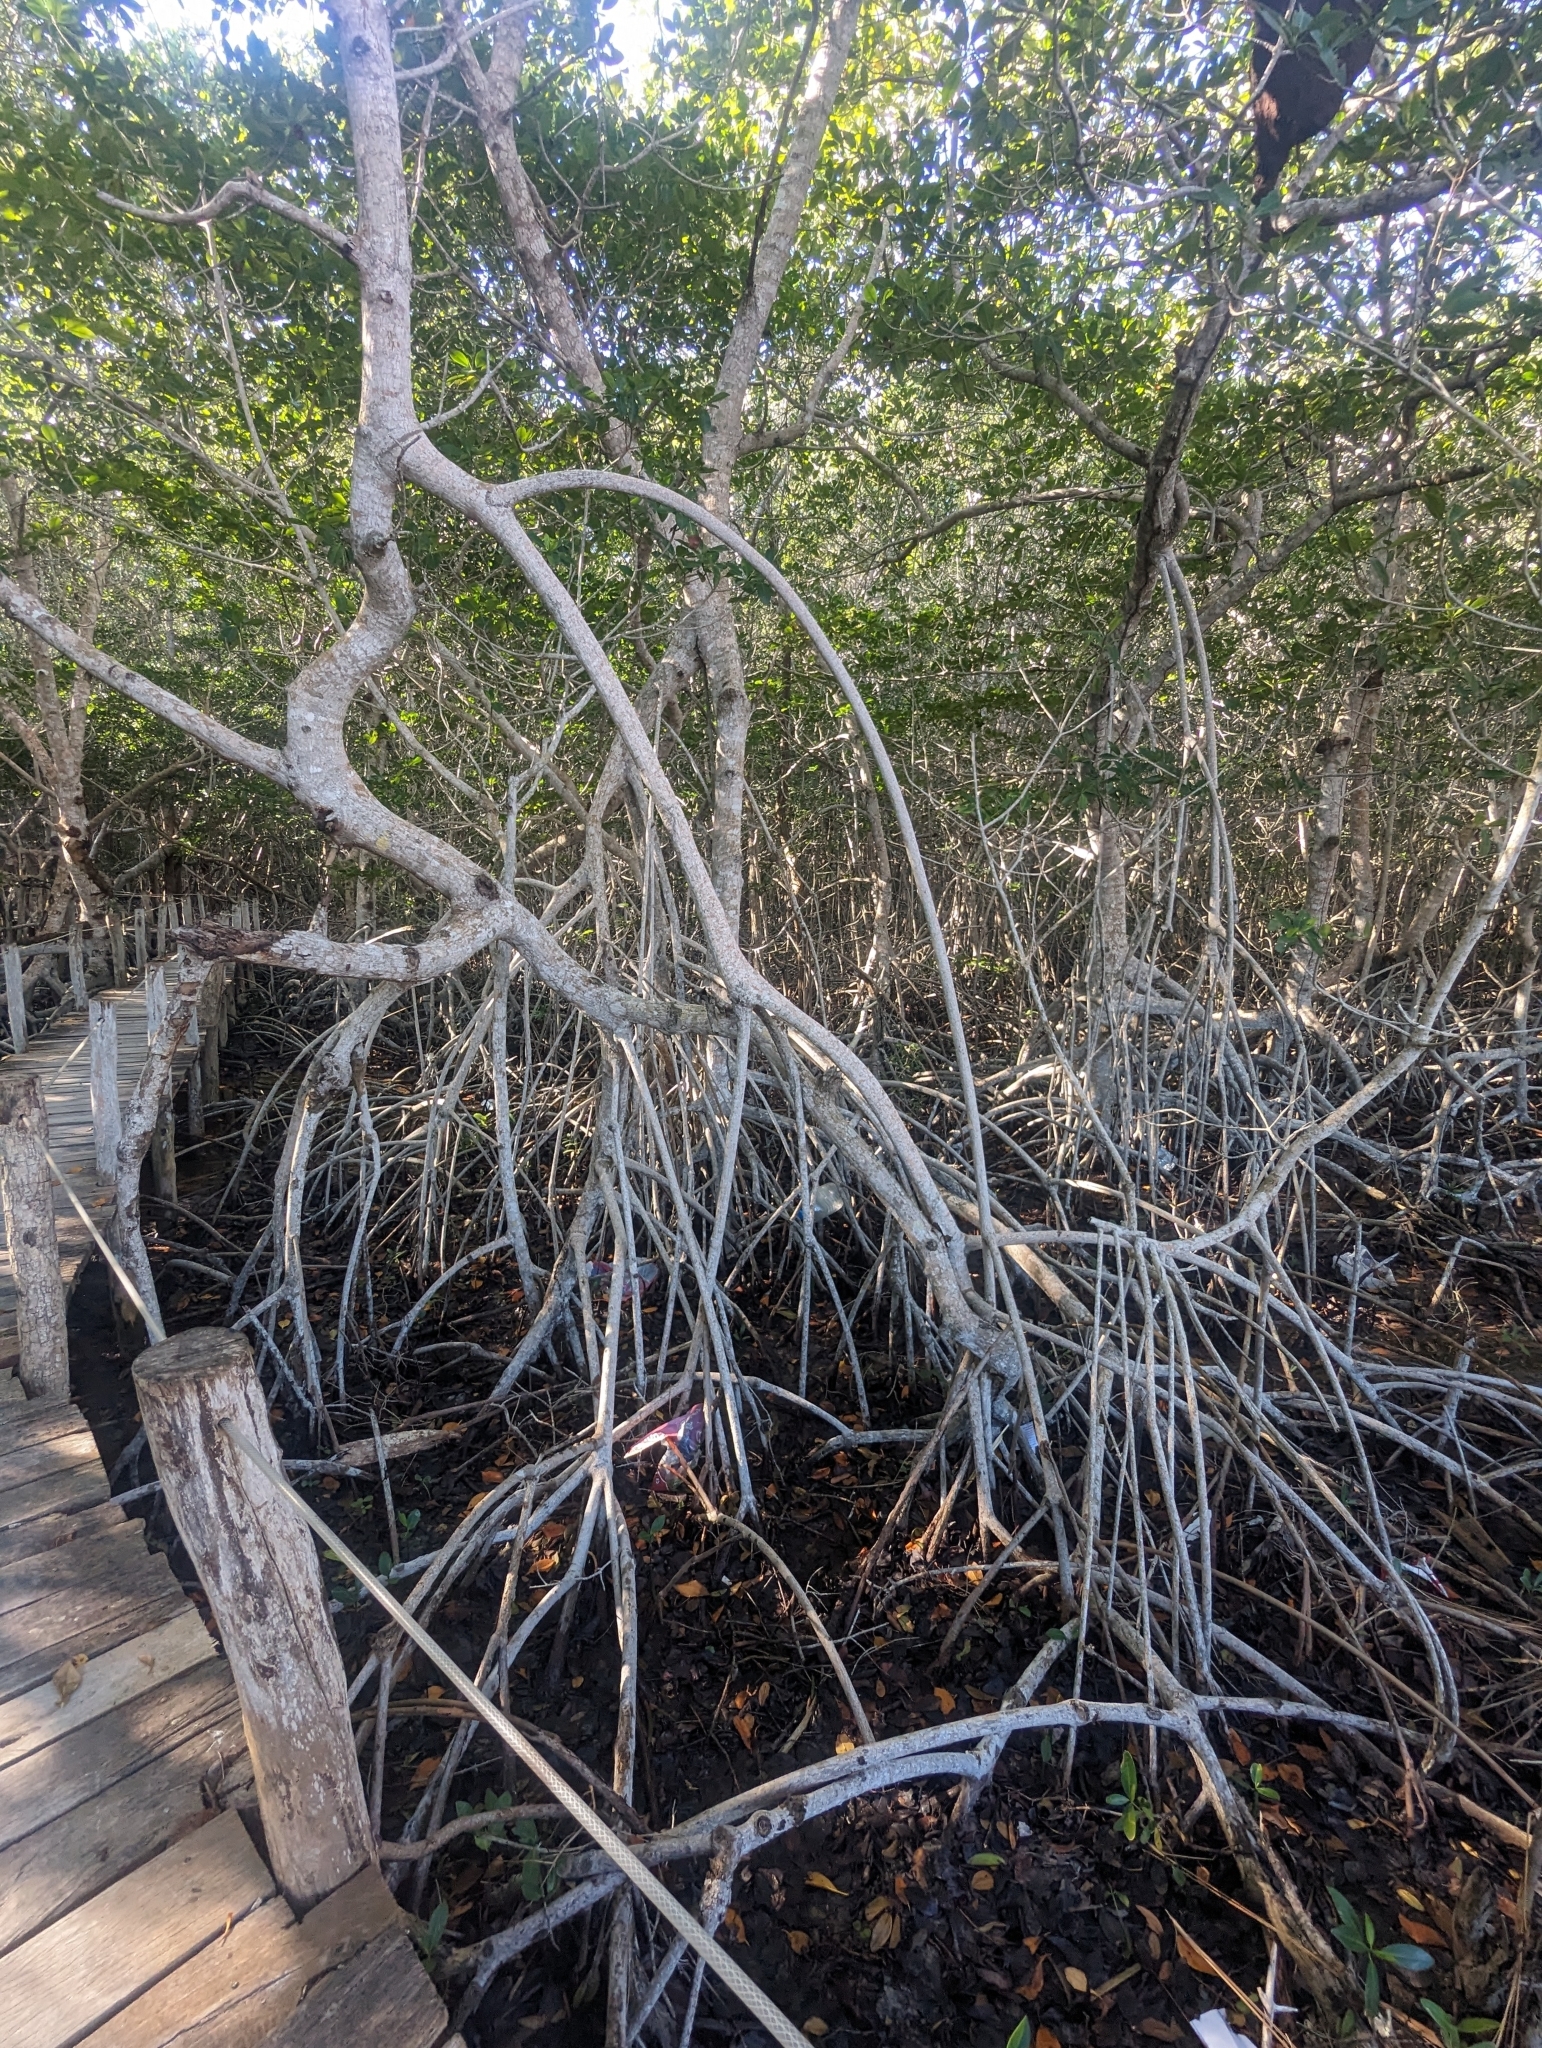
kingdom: Plantae
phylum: Tracheophyta
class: Magnoliopsida
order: Malpighiales
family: Rhizophoraceae
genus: Rhizophora
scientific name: Rhizophora mangle
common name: Red mangrove
